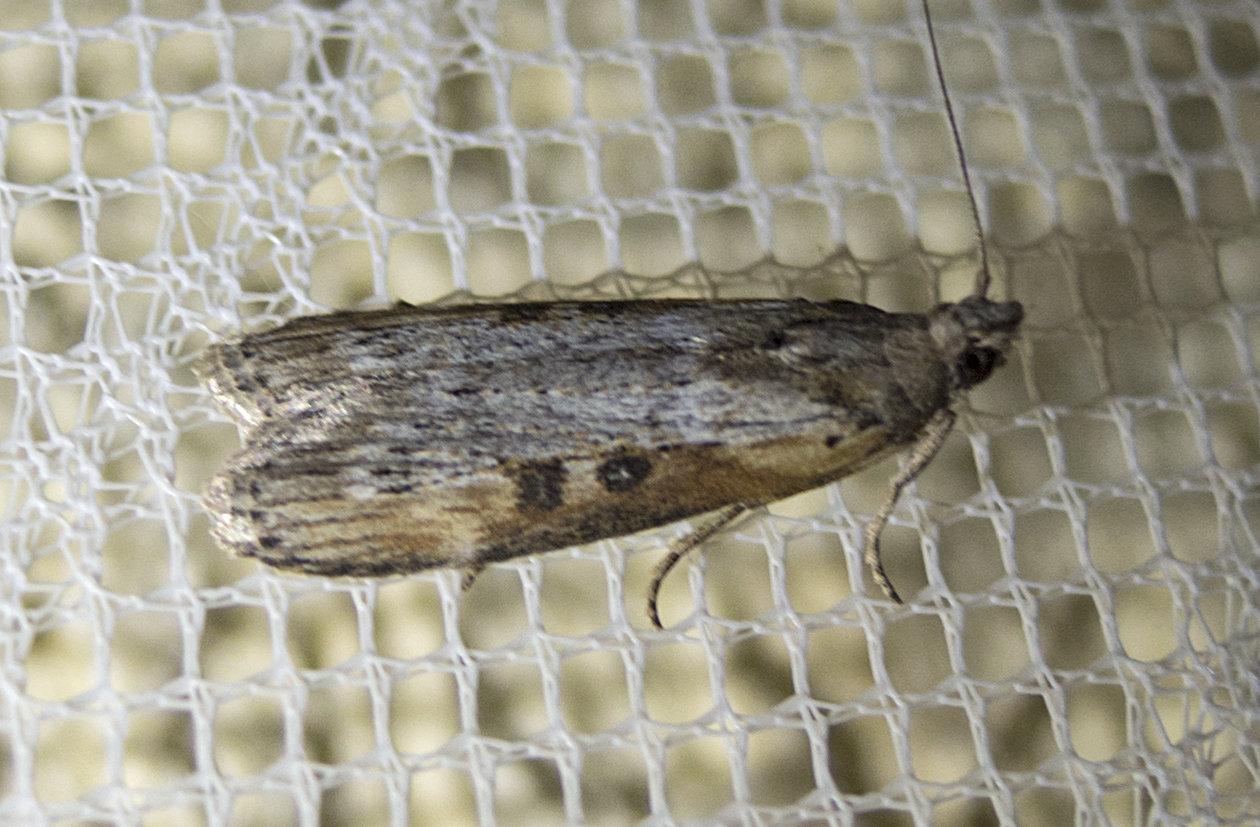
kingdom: Animalia
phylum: Arthropoda
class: Insecta
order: Lepidoptera
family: Pyralidae
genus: Lamoria
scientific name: Lamoria anella
